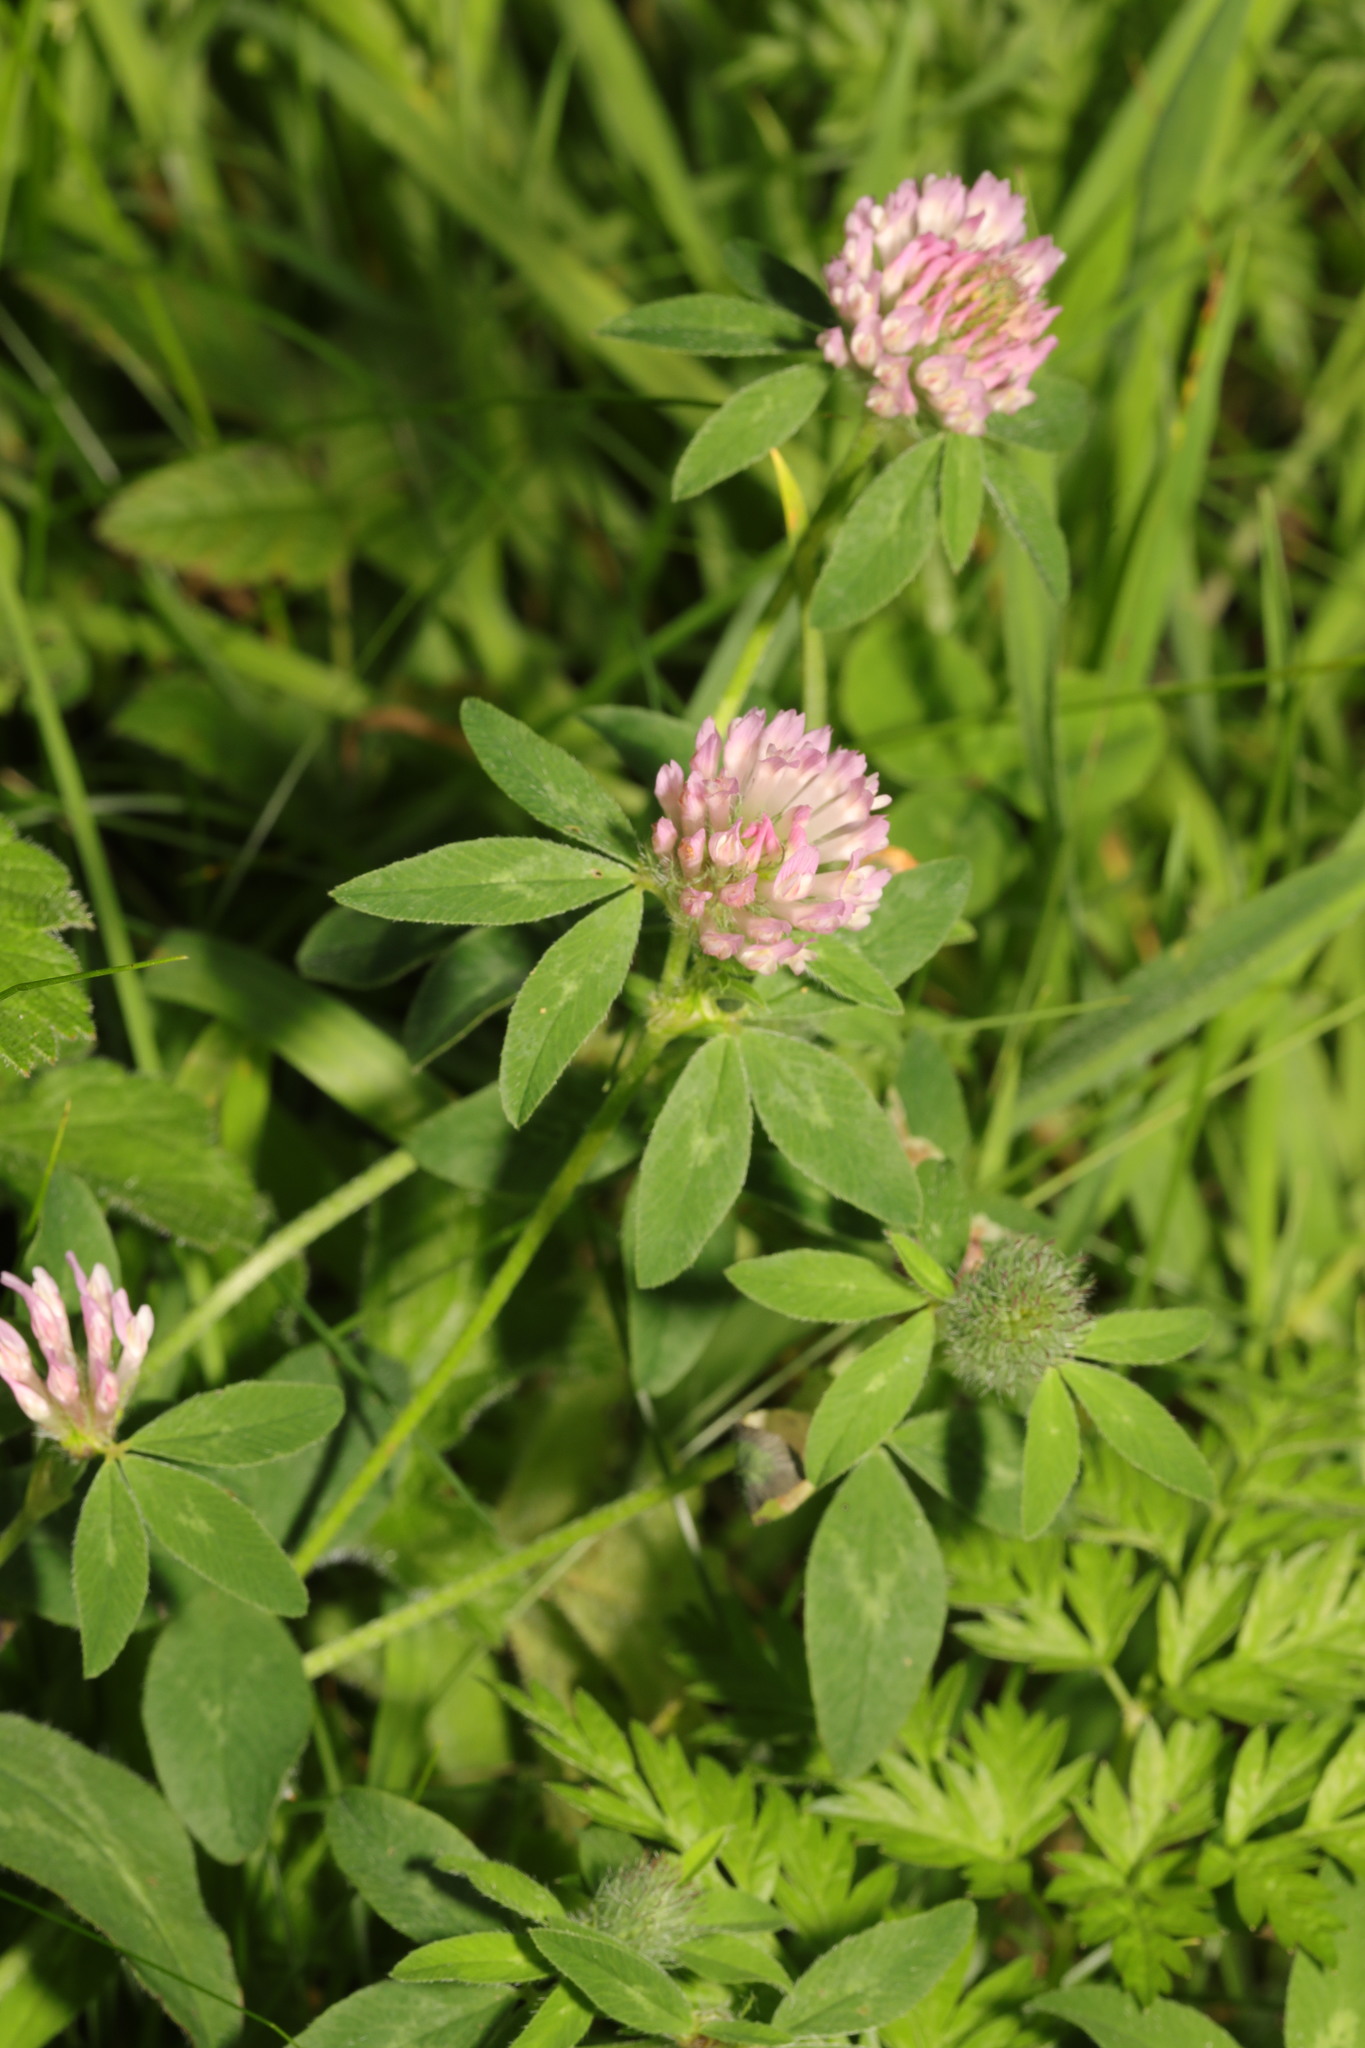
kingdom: Plantae
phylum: Tracheophyta
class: Magnoliopsida
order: Fabales
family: Fabaceae
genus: Trifolium
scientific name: Trifolium pratense
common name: Red clover
